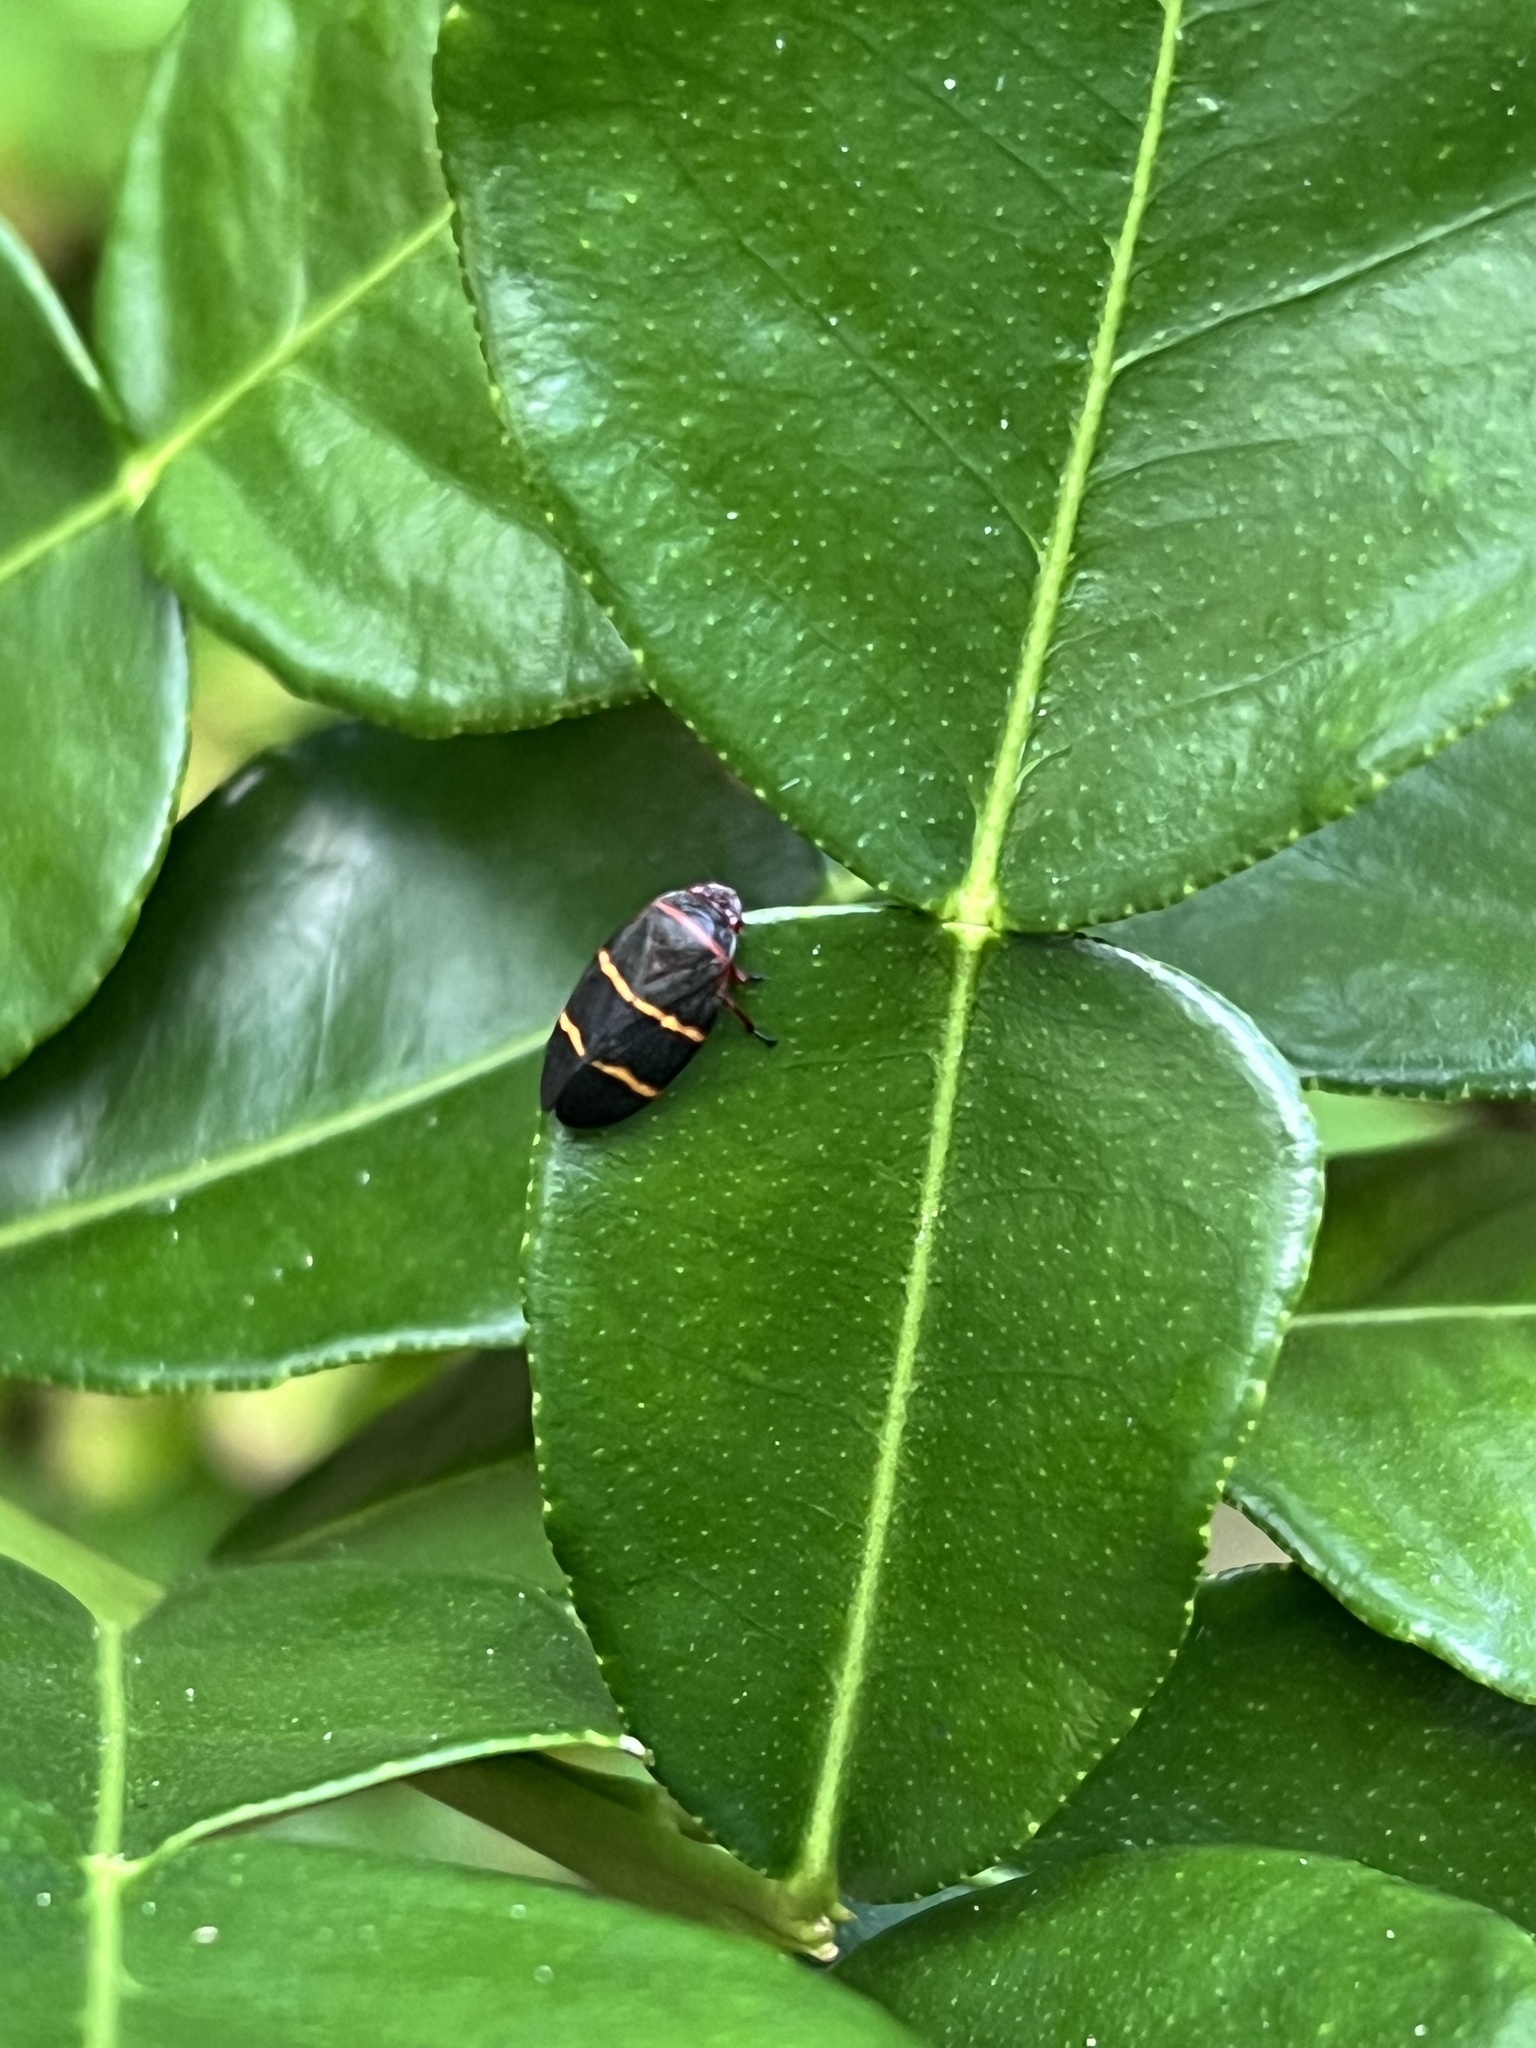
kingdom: Animalia
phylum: Arthropoda
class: Insecta
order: Hemiptera
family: Cercopidae
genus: Prosapia
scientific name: Prosapia bicincta
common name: Twolined spittlebug
